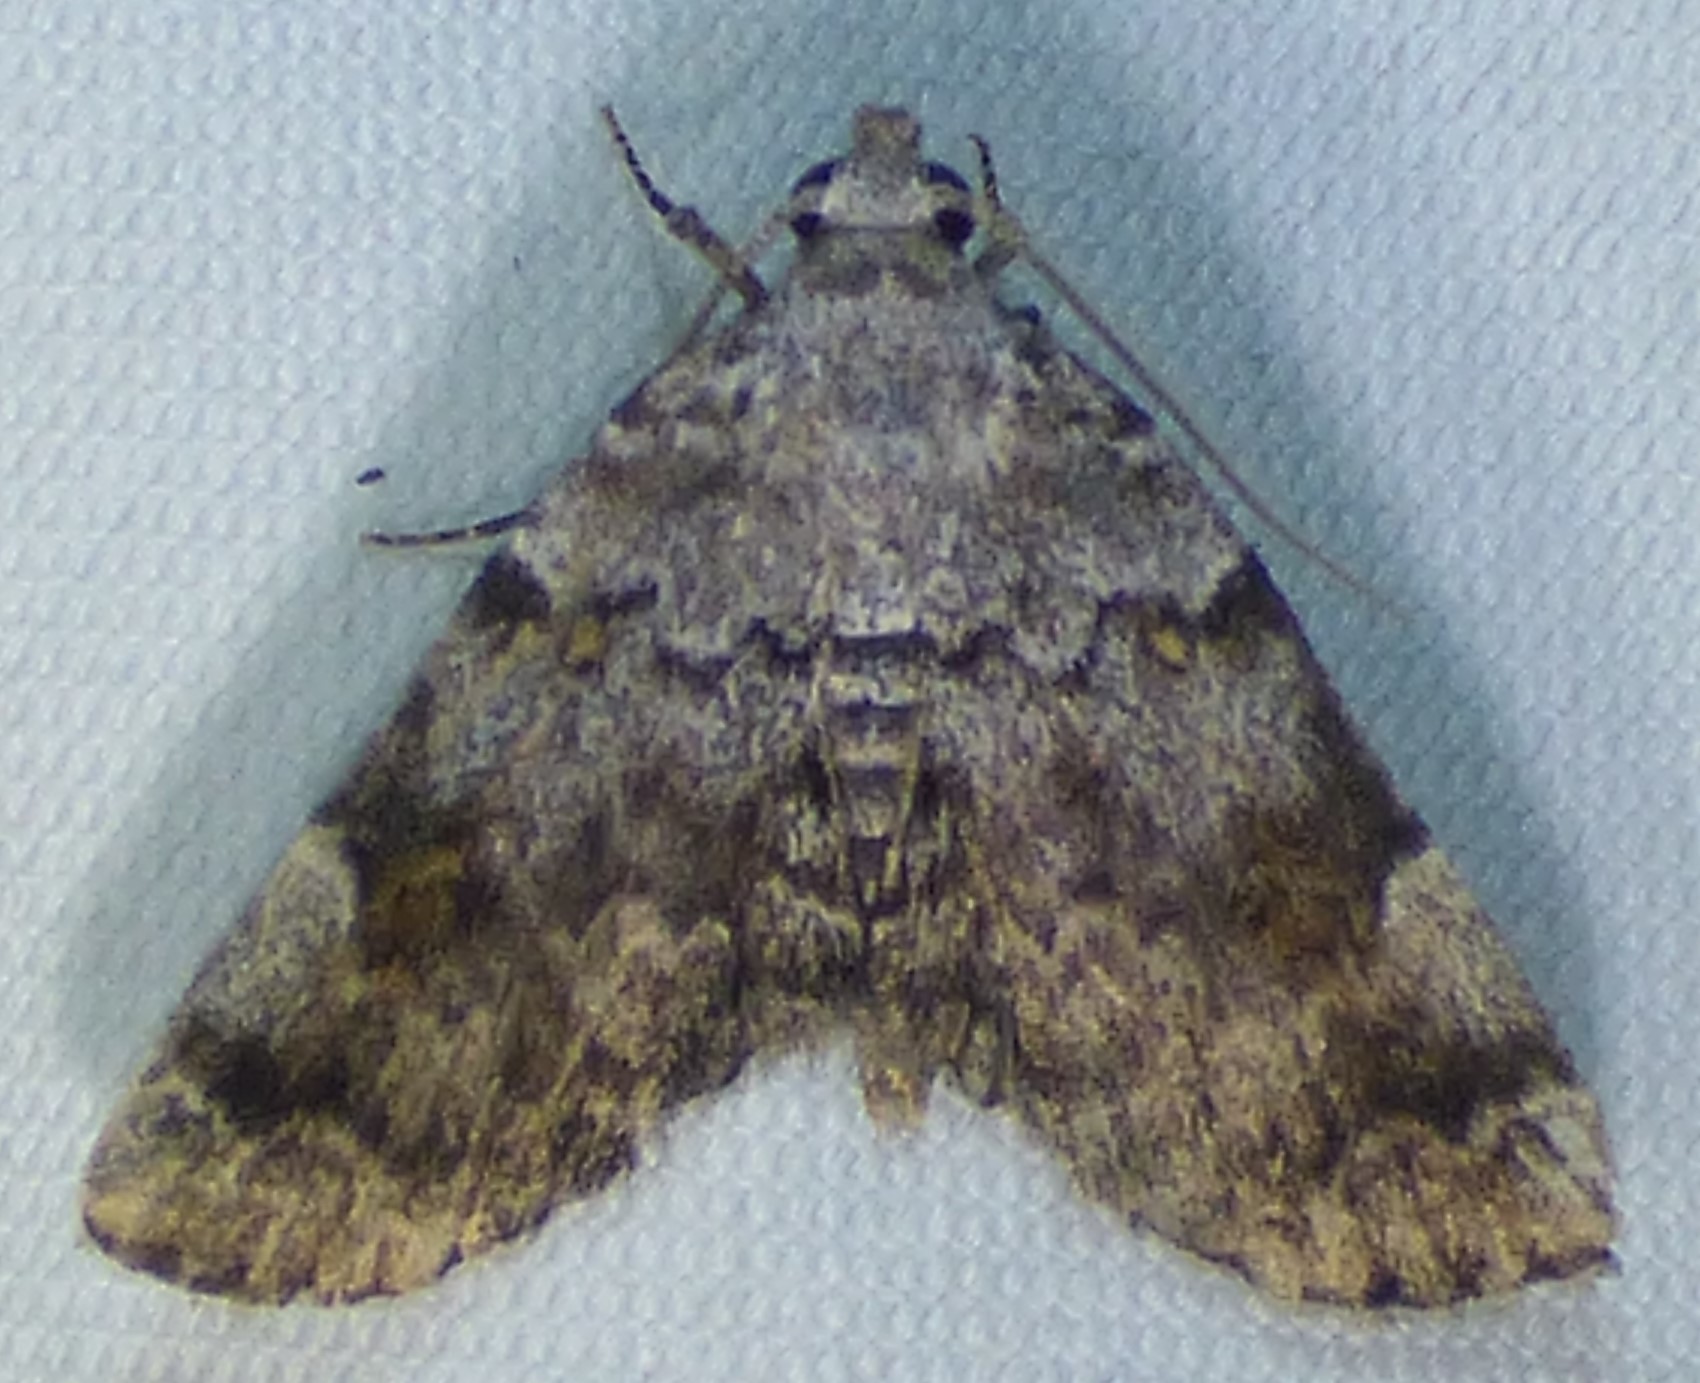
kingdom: Animalia
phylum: Arthropoda
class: Insecta
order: Lepidoptera
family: Erebidae
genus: Idia
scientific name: Idia americalis
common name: American idia moth
